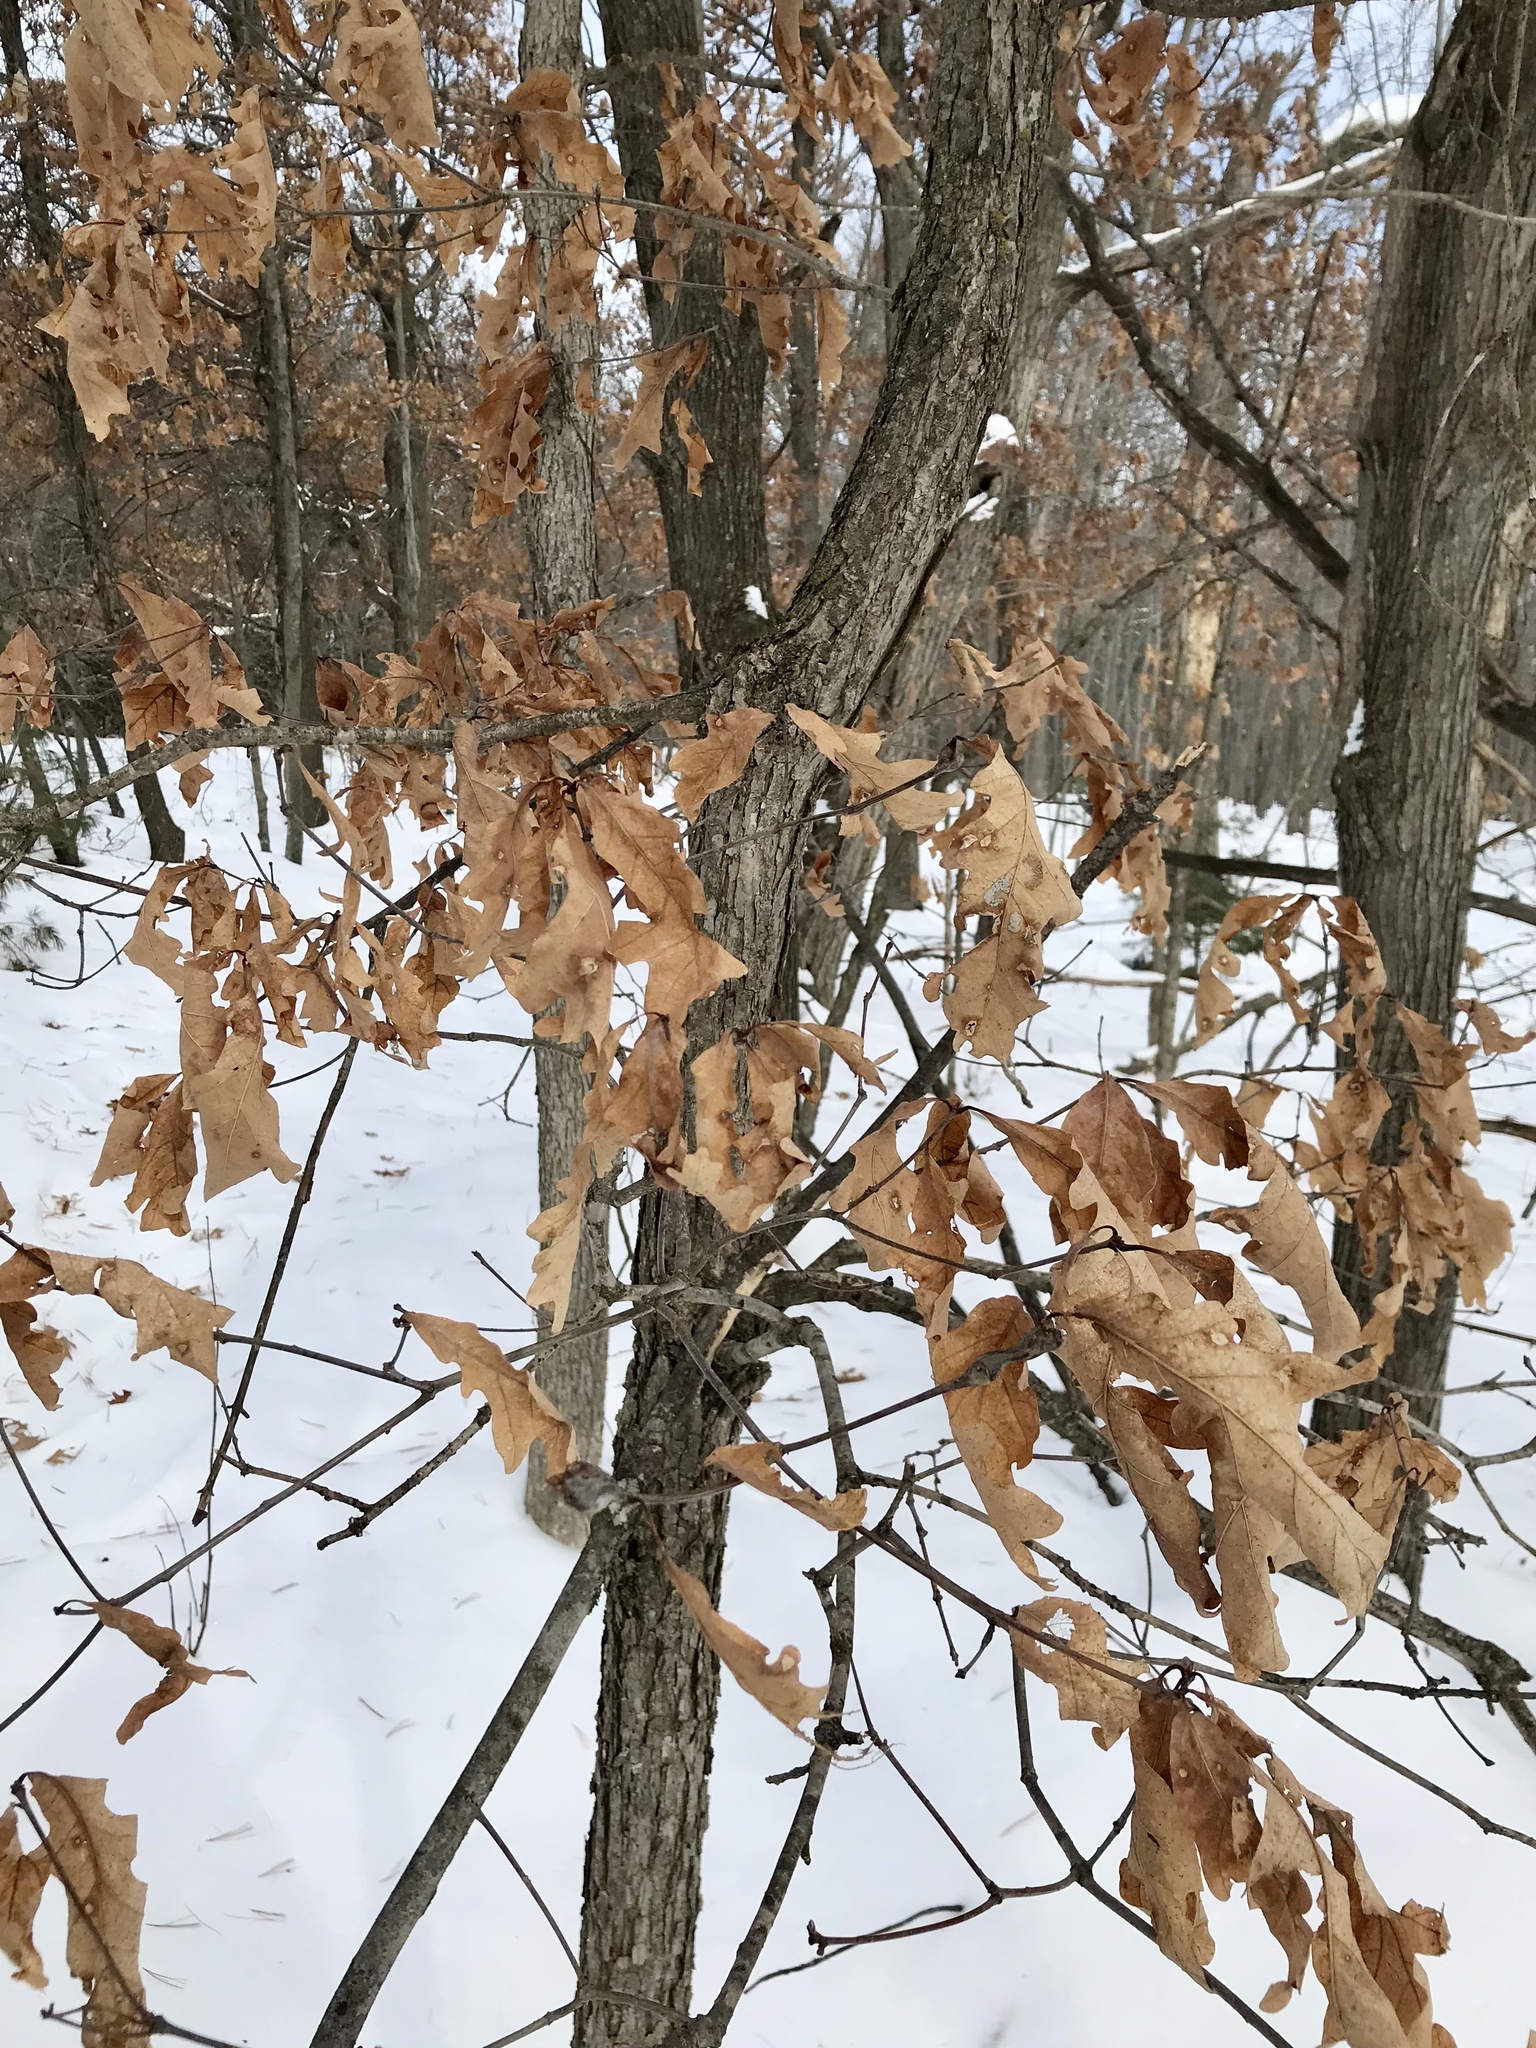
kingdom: Plantae
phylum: Tracheophyta
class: Magnoliopsida
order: Fagales
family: Fagaceae
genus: Quercus
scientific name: Quercus alba
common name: White oak
